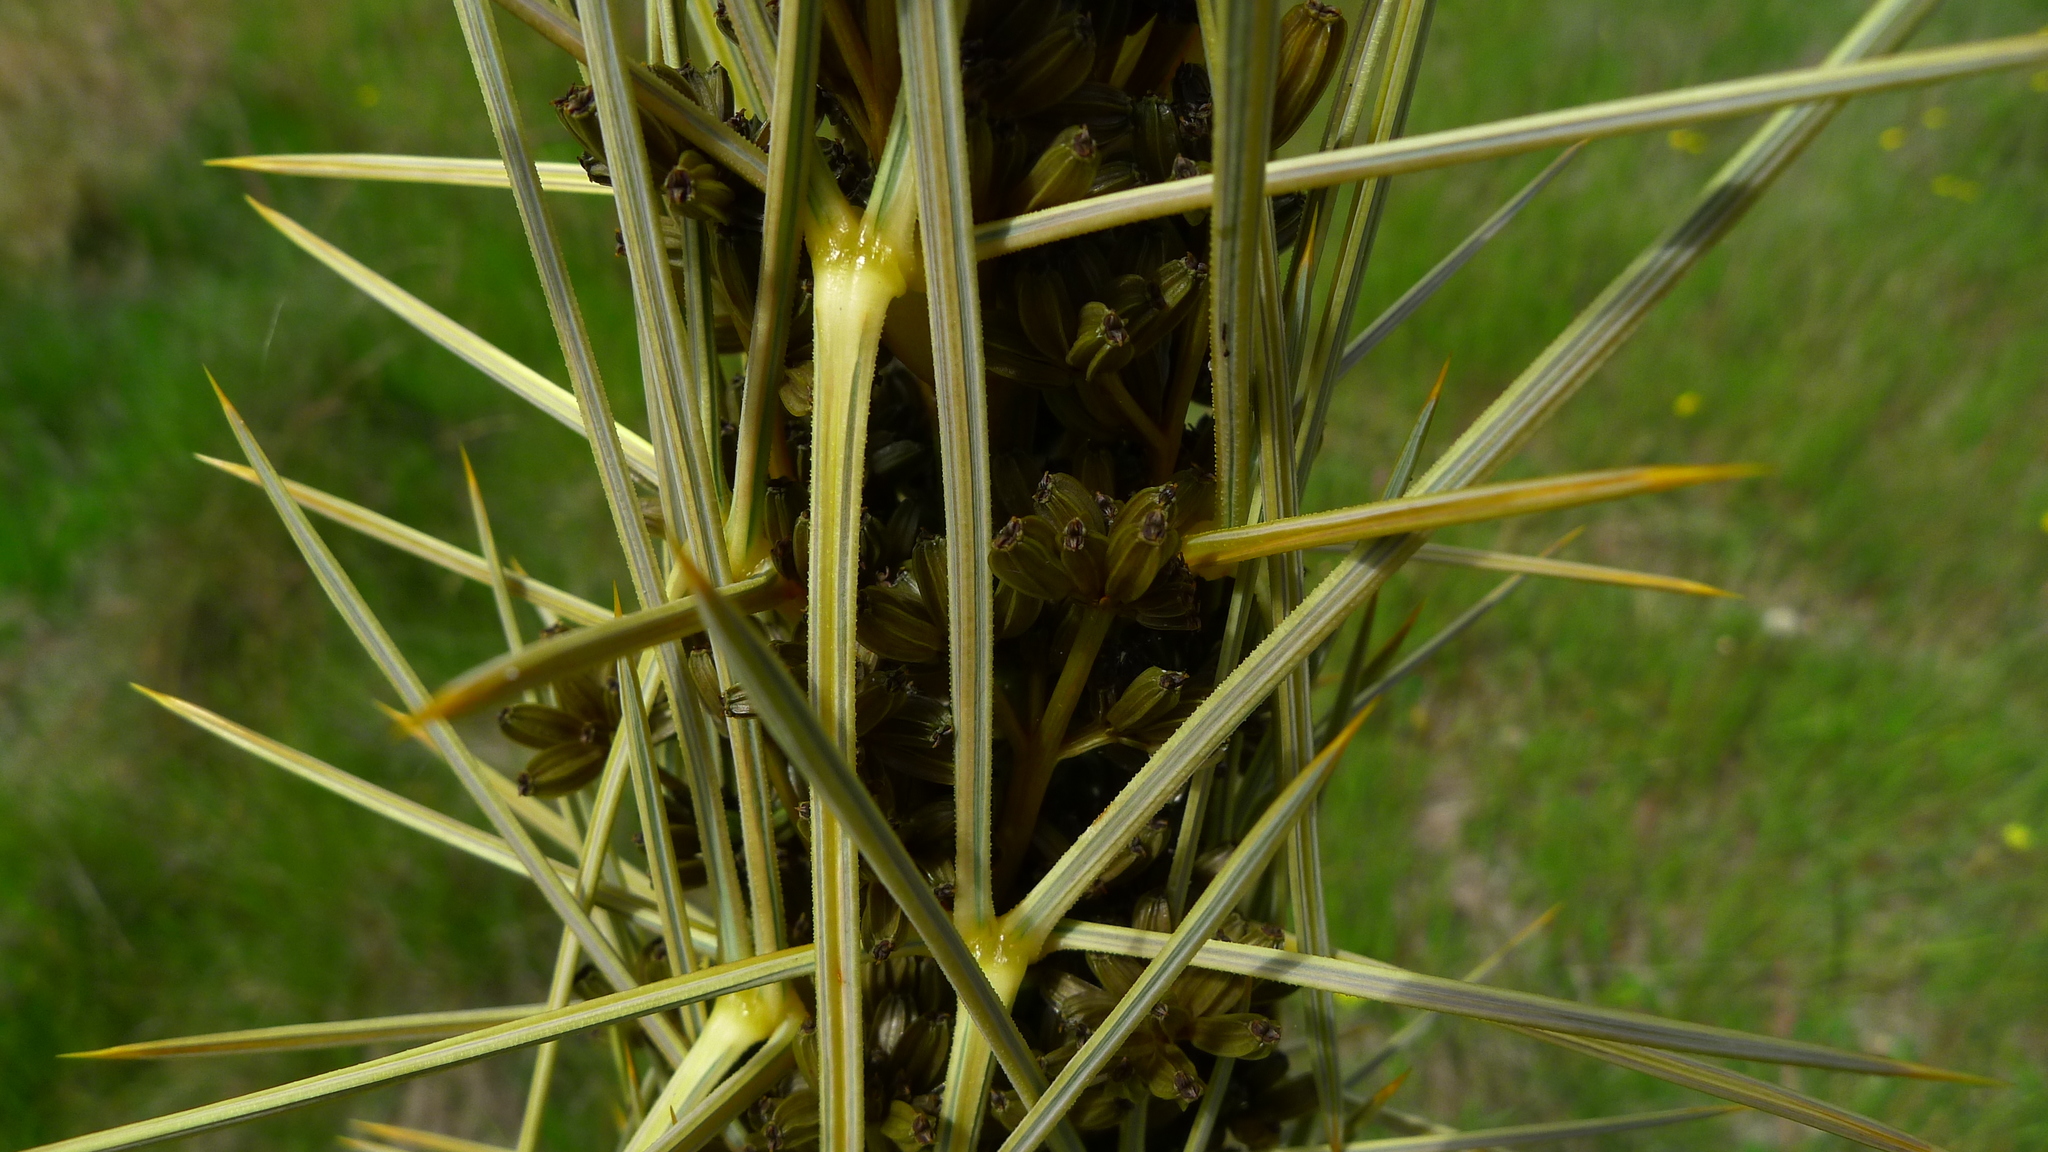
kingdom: Plantae
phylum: Tracheophyta
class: Magnoliopsida
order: Apiales
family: Apiaceae
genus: Aciphylla
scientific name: Aciphylla subflabellata
